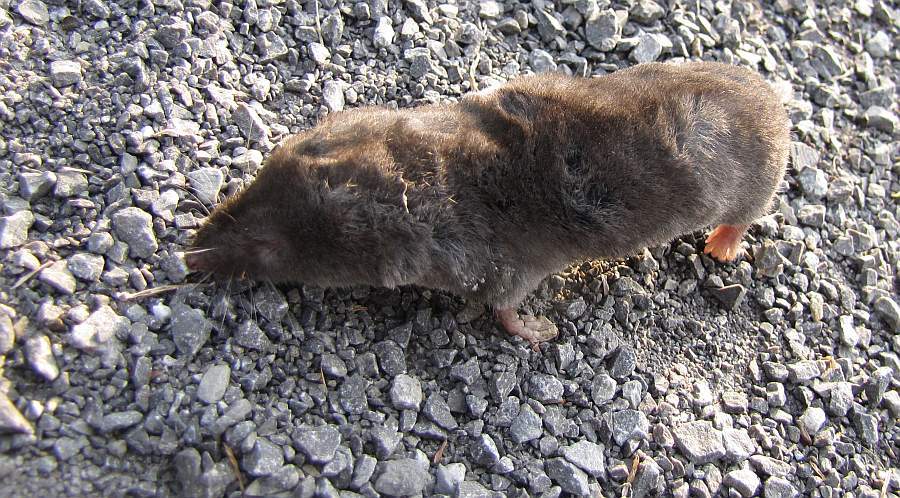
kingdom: Animalia
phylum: Chordata
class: Mammalia
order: Soricomorpha
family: Soricidae
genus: Blarina
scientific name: Blarina brevicauda
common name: Northern short-tailed shrew
